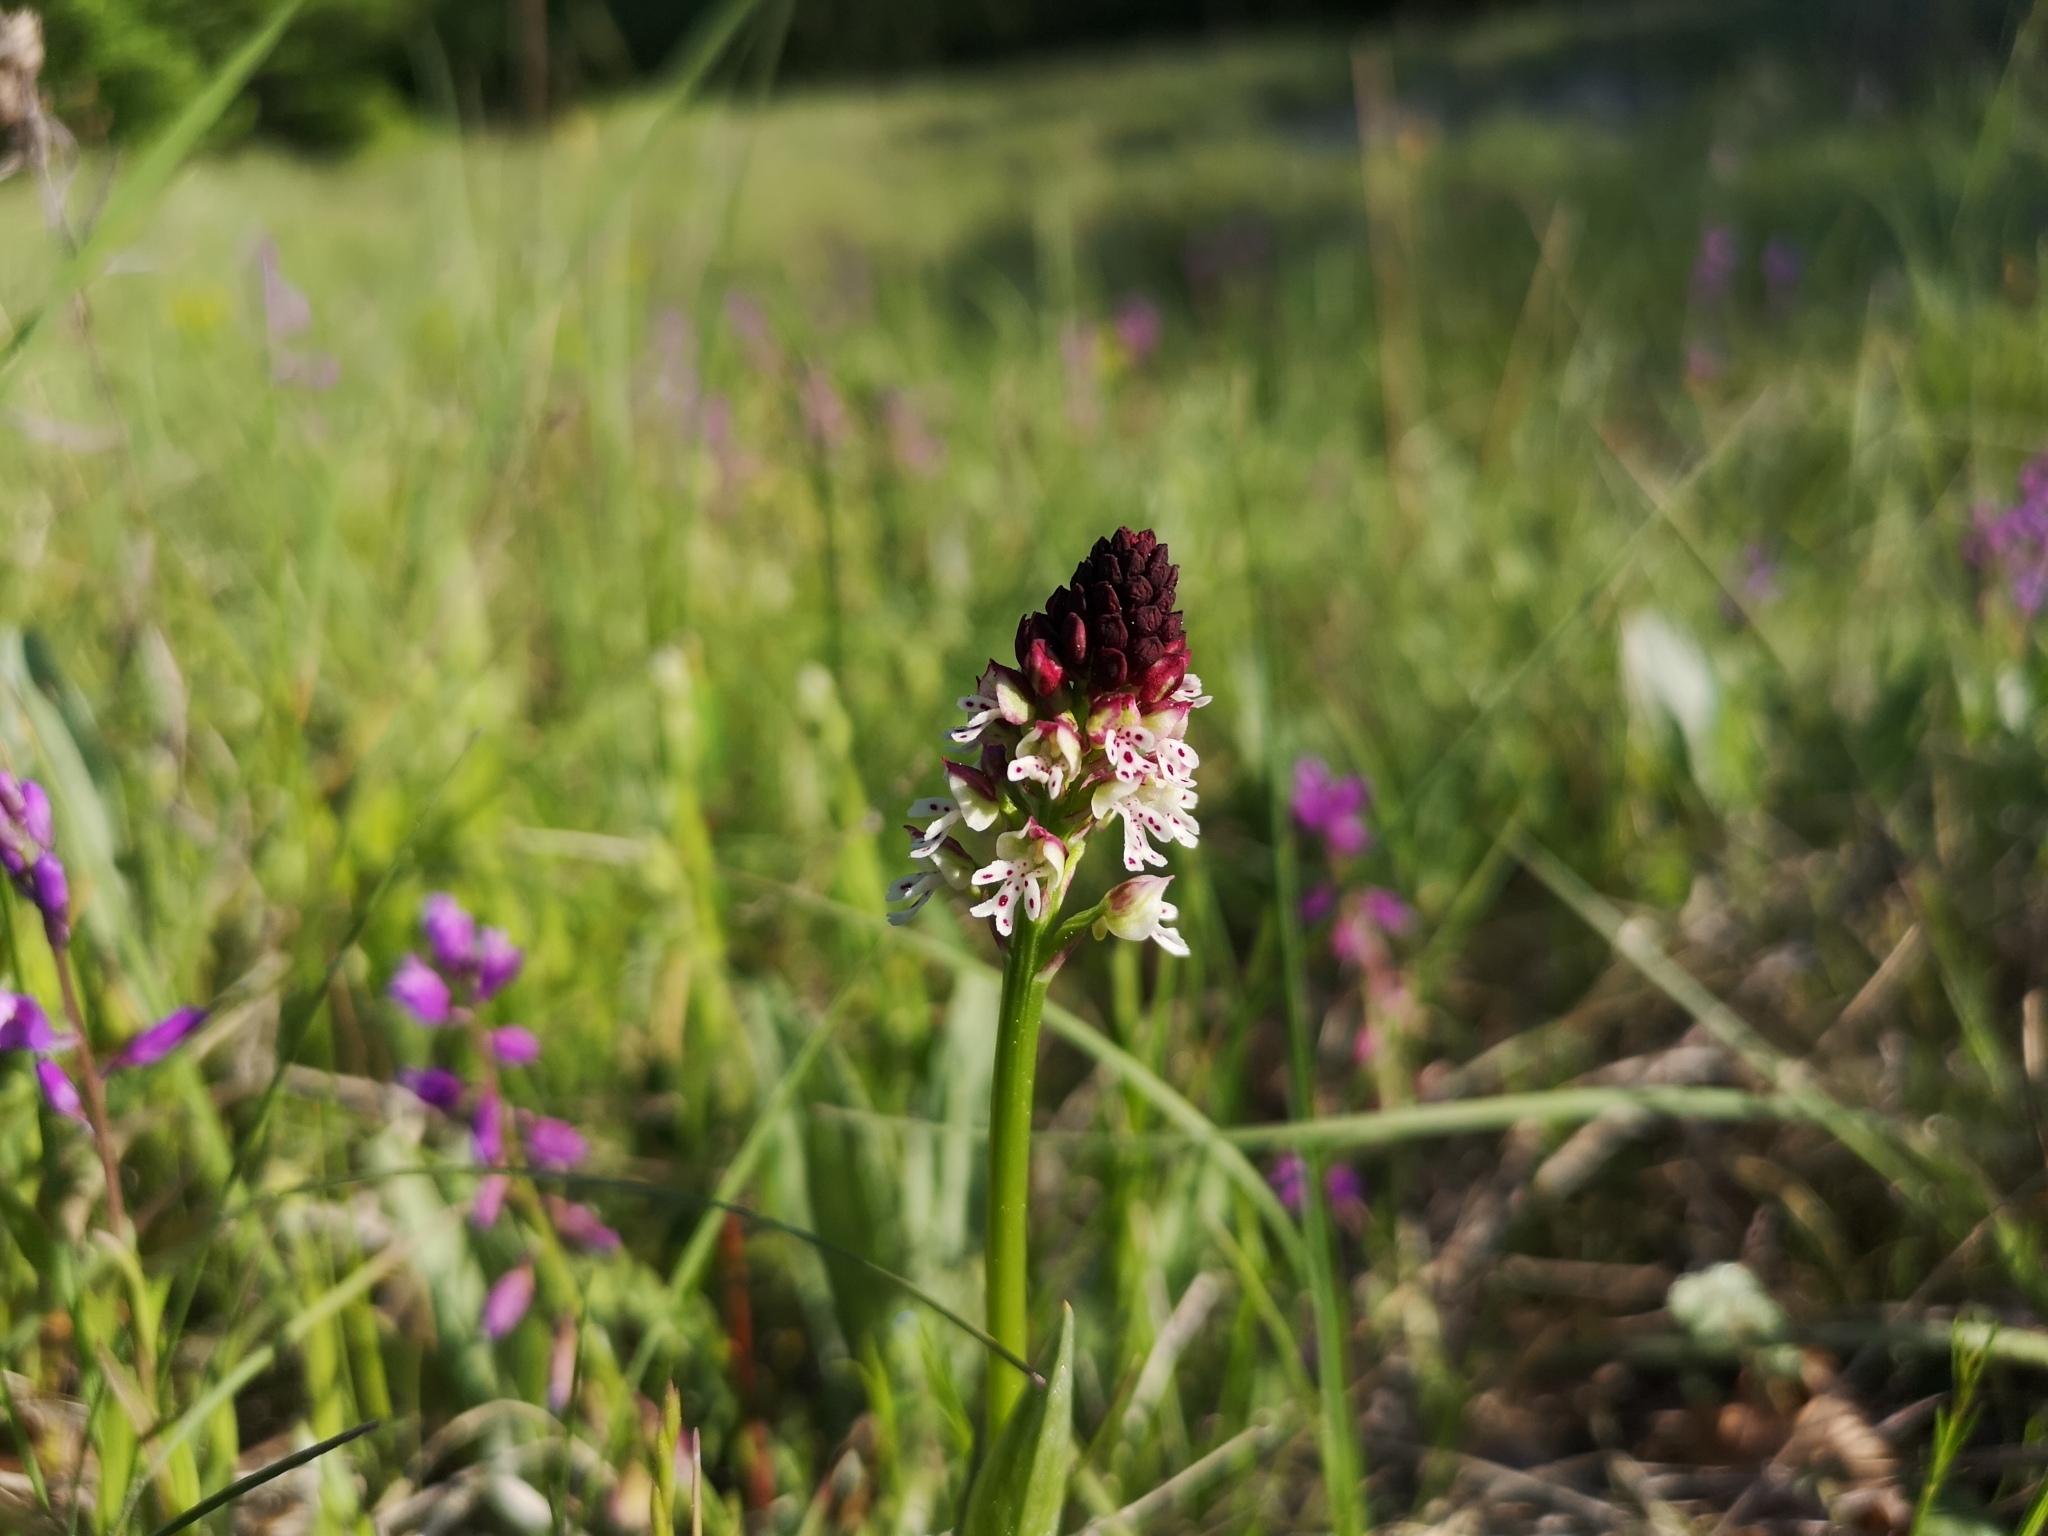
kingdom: Plantae
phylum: Tracheophyta
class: Liliopsida
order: Asparagales
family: Orchidaceae
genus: Neotinea
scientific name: Neotinea ustulata
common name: Burnt orchid
